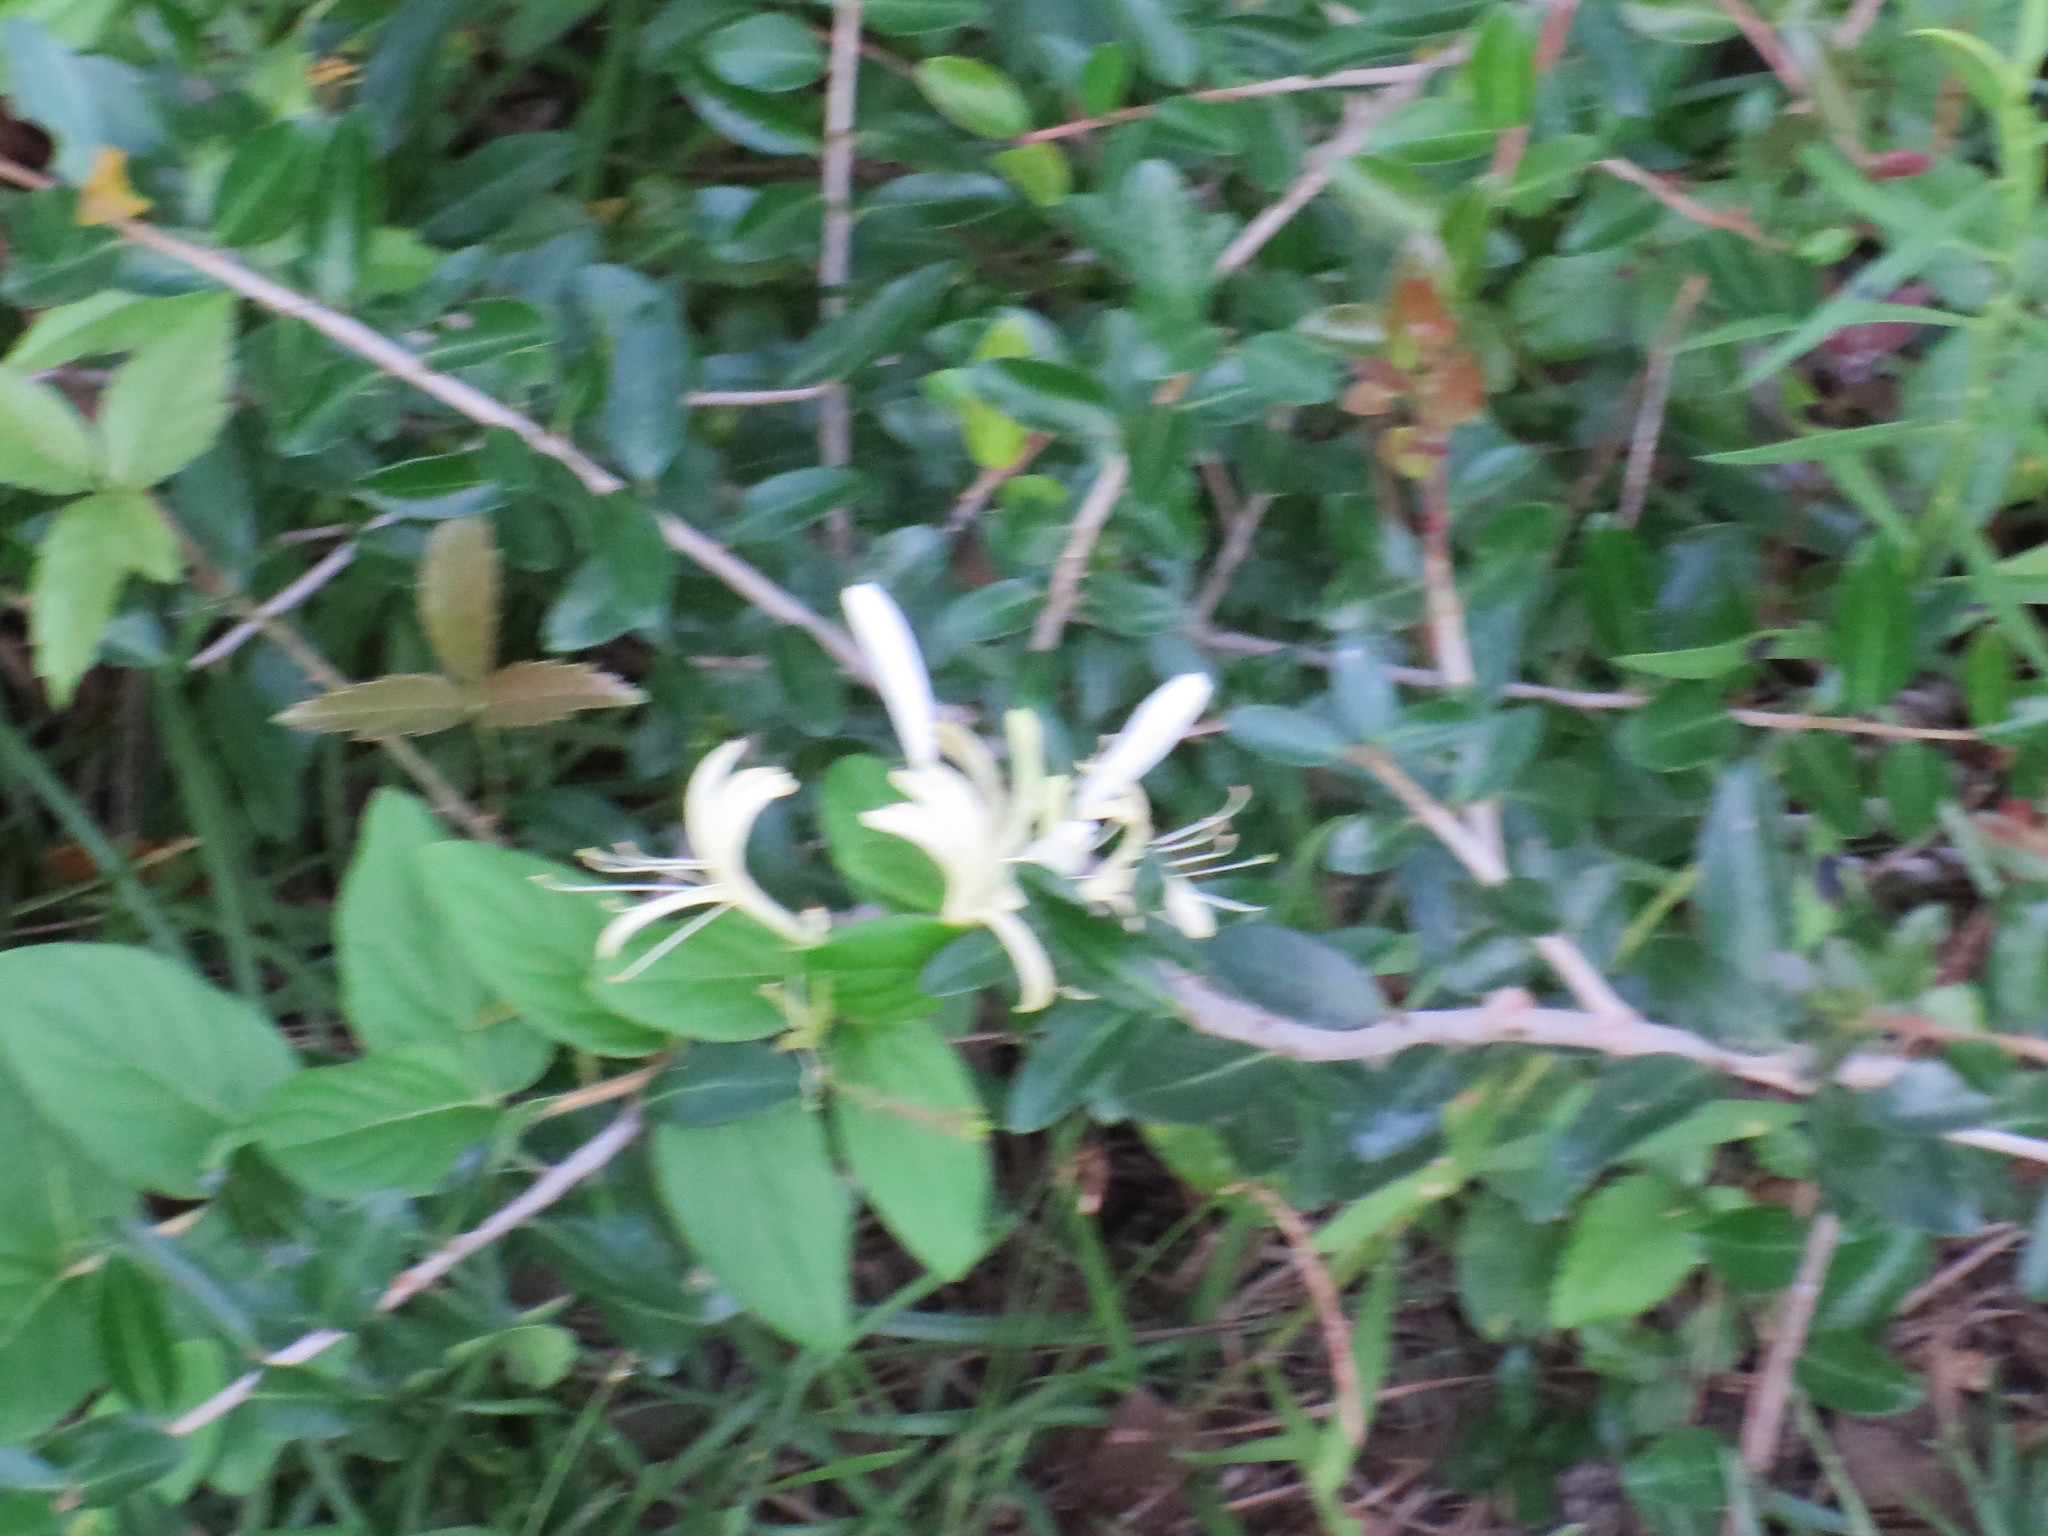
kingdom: Plantae
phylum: Tracheophyta
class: Magnoliopsida
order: Dipsacales
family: Caprifoliaceae
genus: Lonicera
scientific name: Lonicera japonica
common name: Japanese honeysuckle
